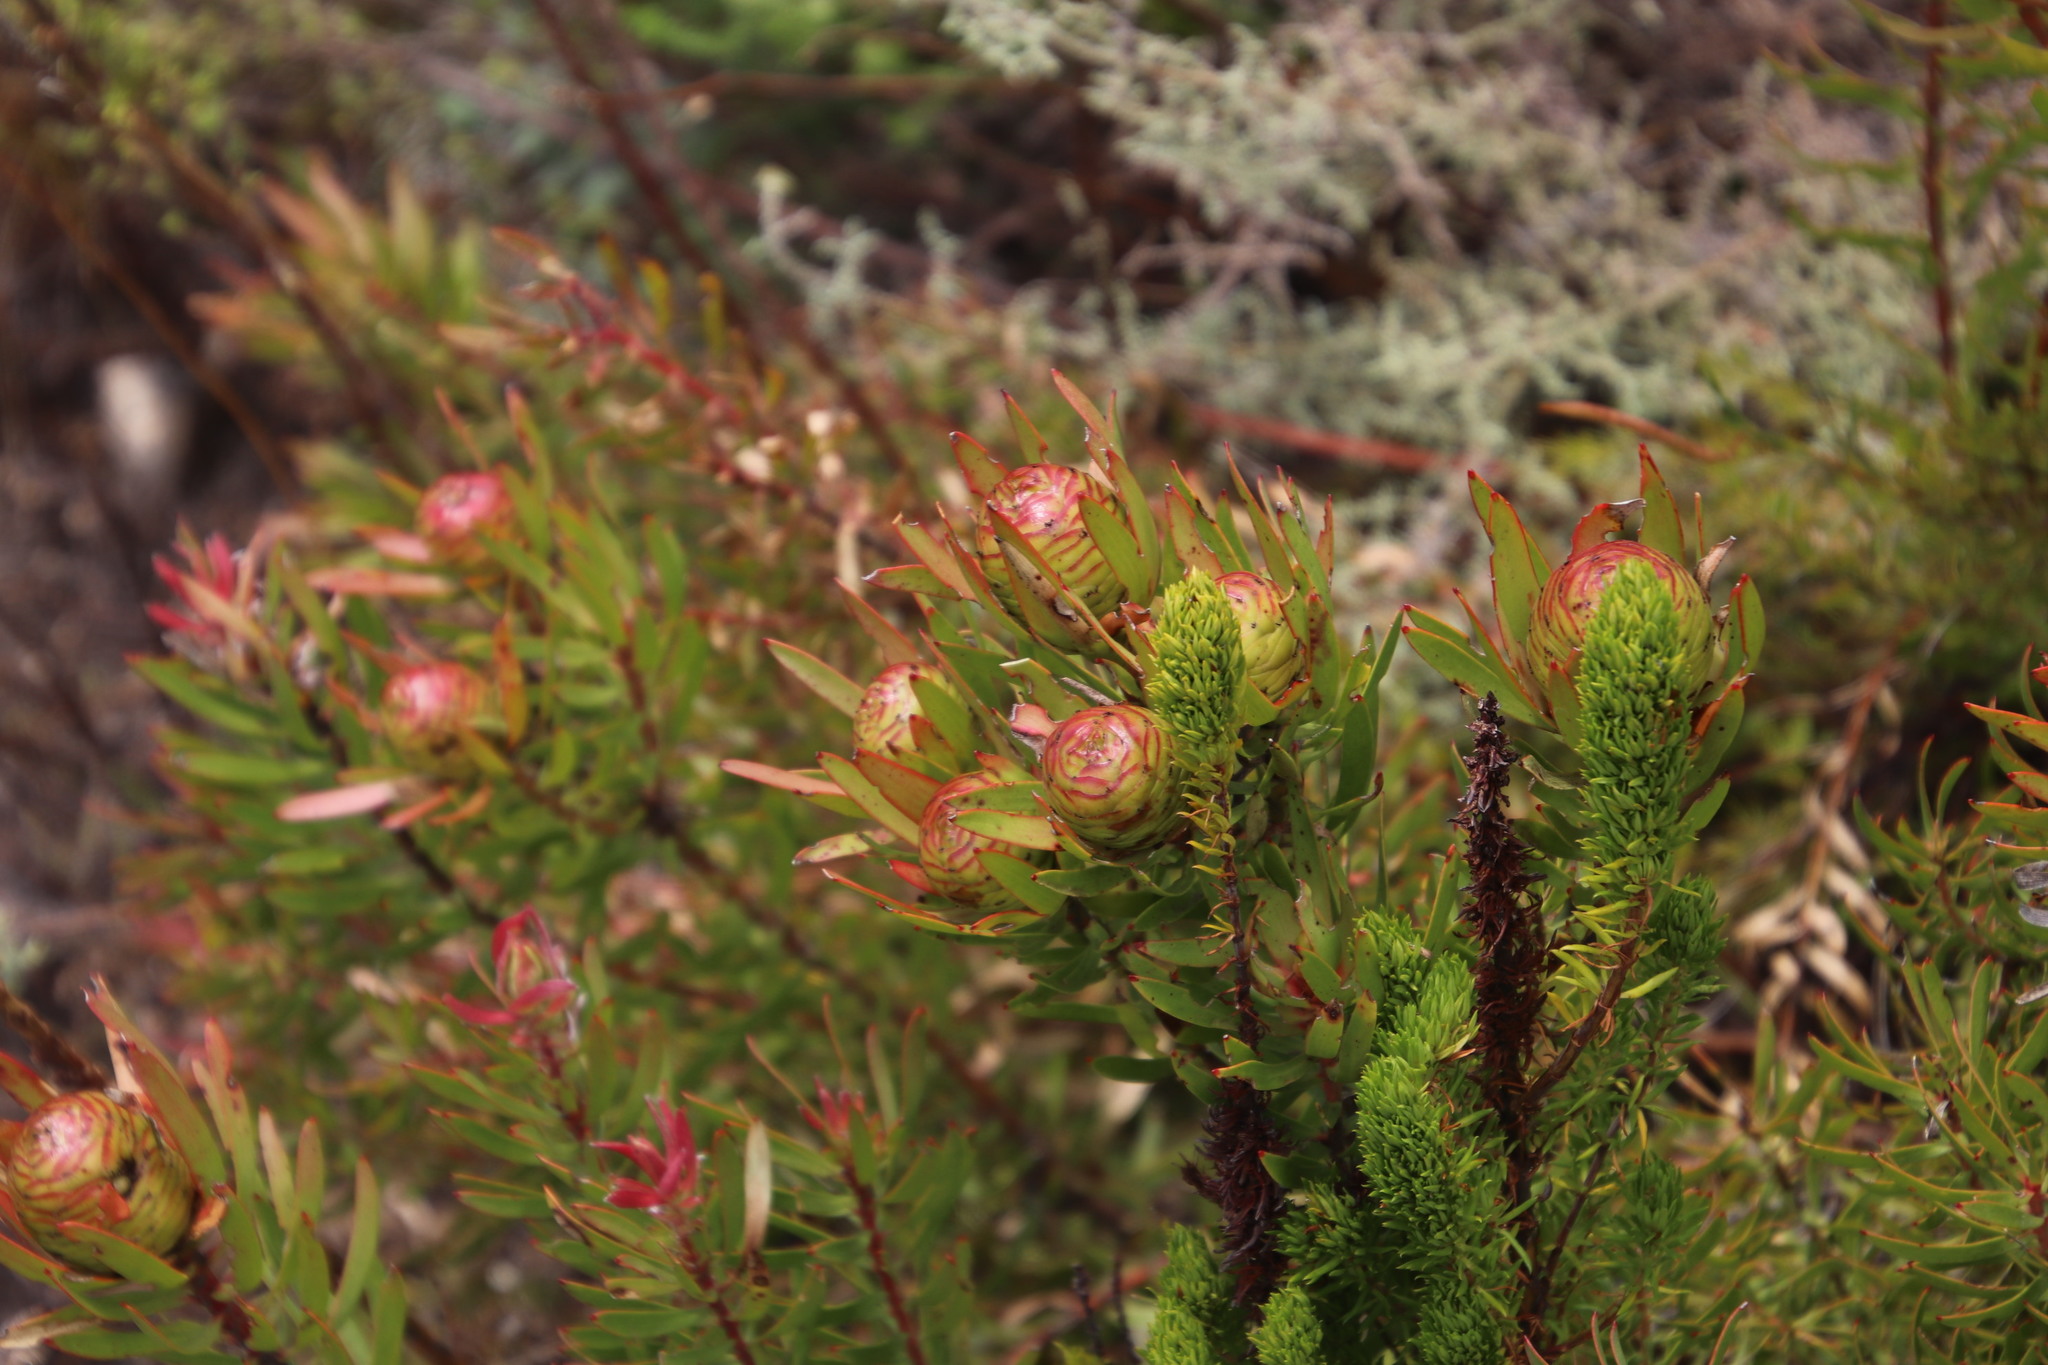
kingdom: Plantae
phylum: Tracheophyta
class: Magnoliopsida
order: Proteales
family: Proteaceae
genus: Leucadendron
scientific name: Leucadendron spissifolium
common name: Spear-leaf conebush
